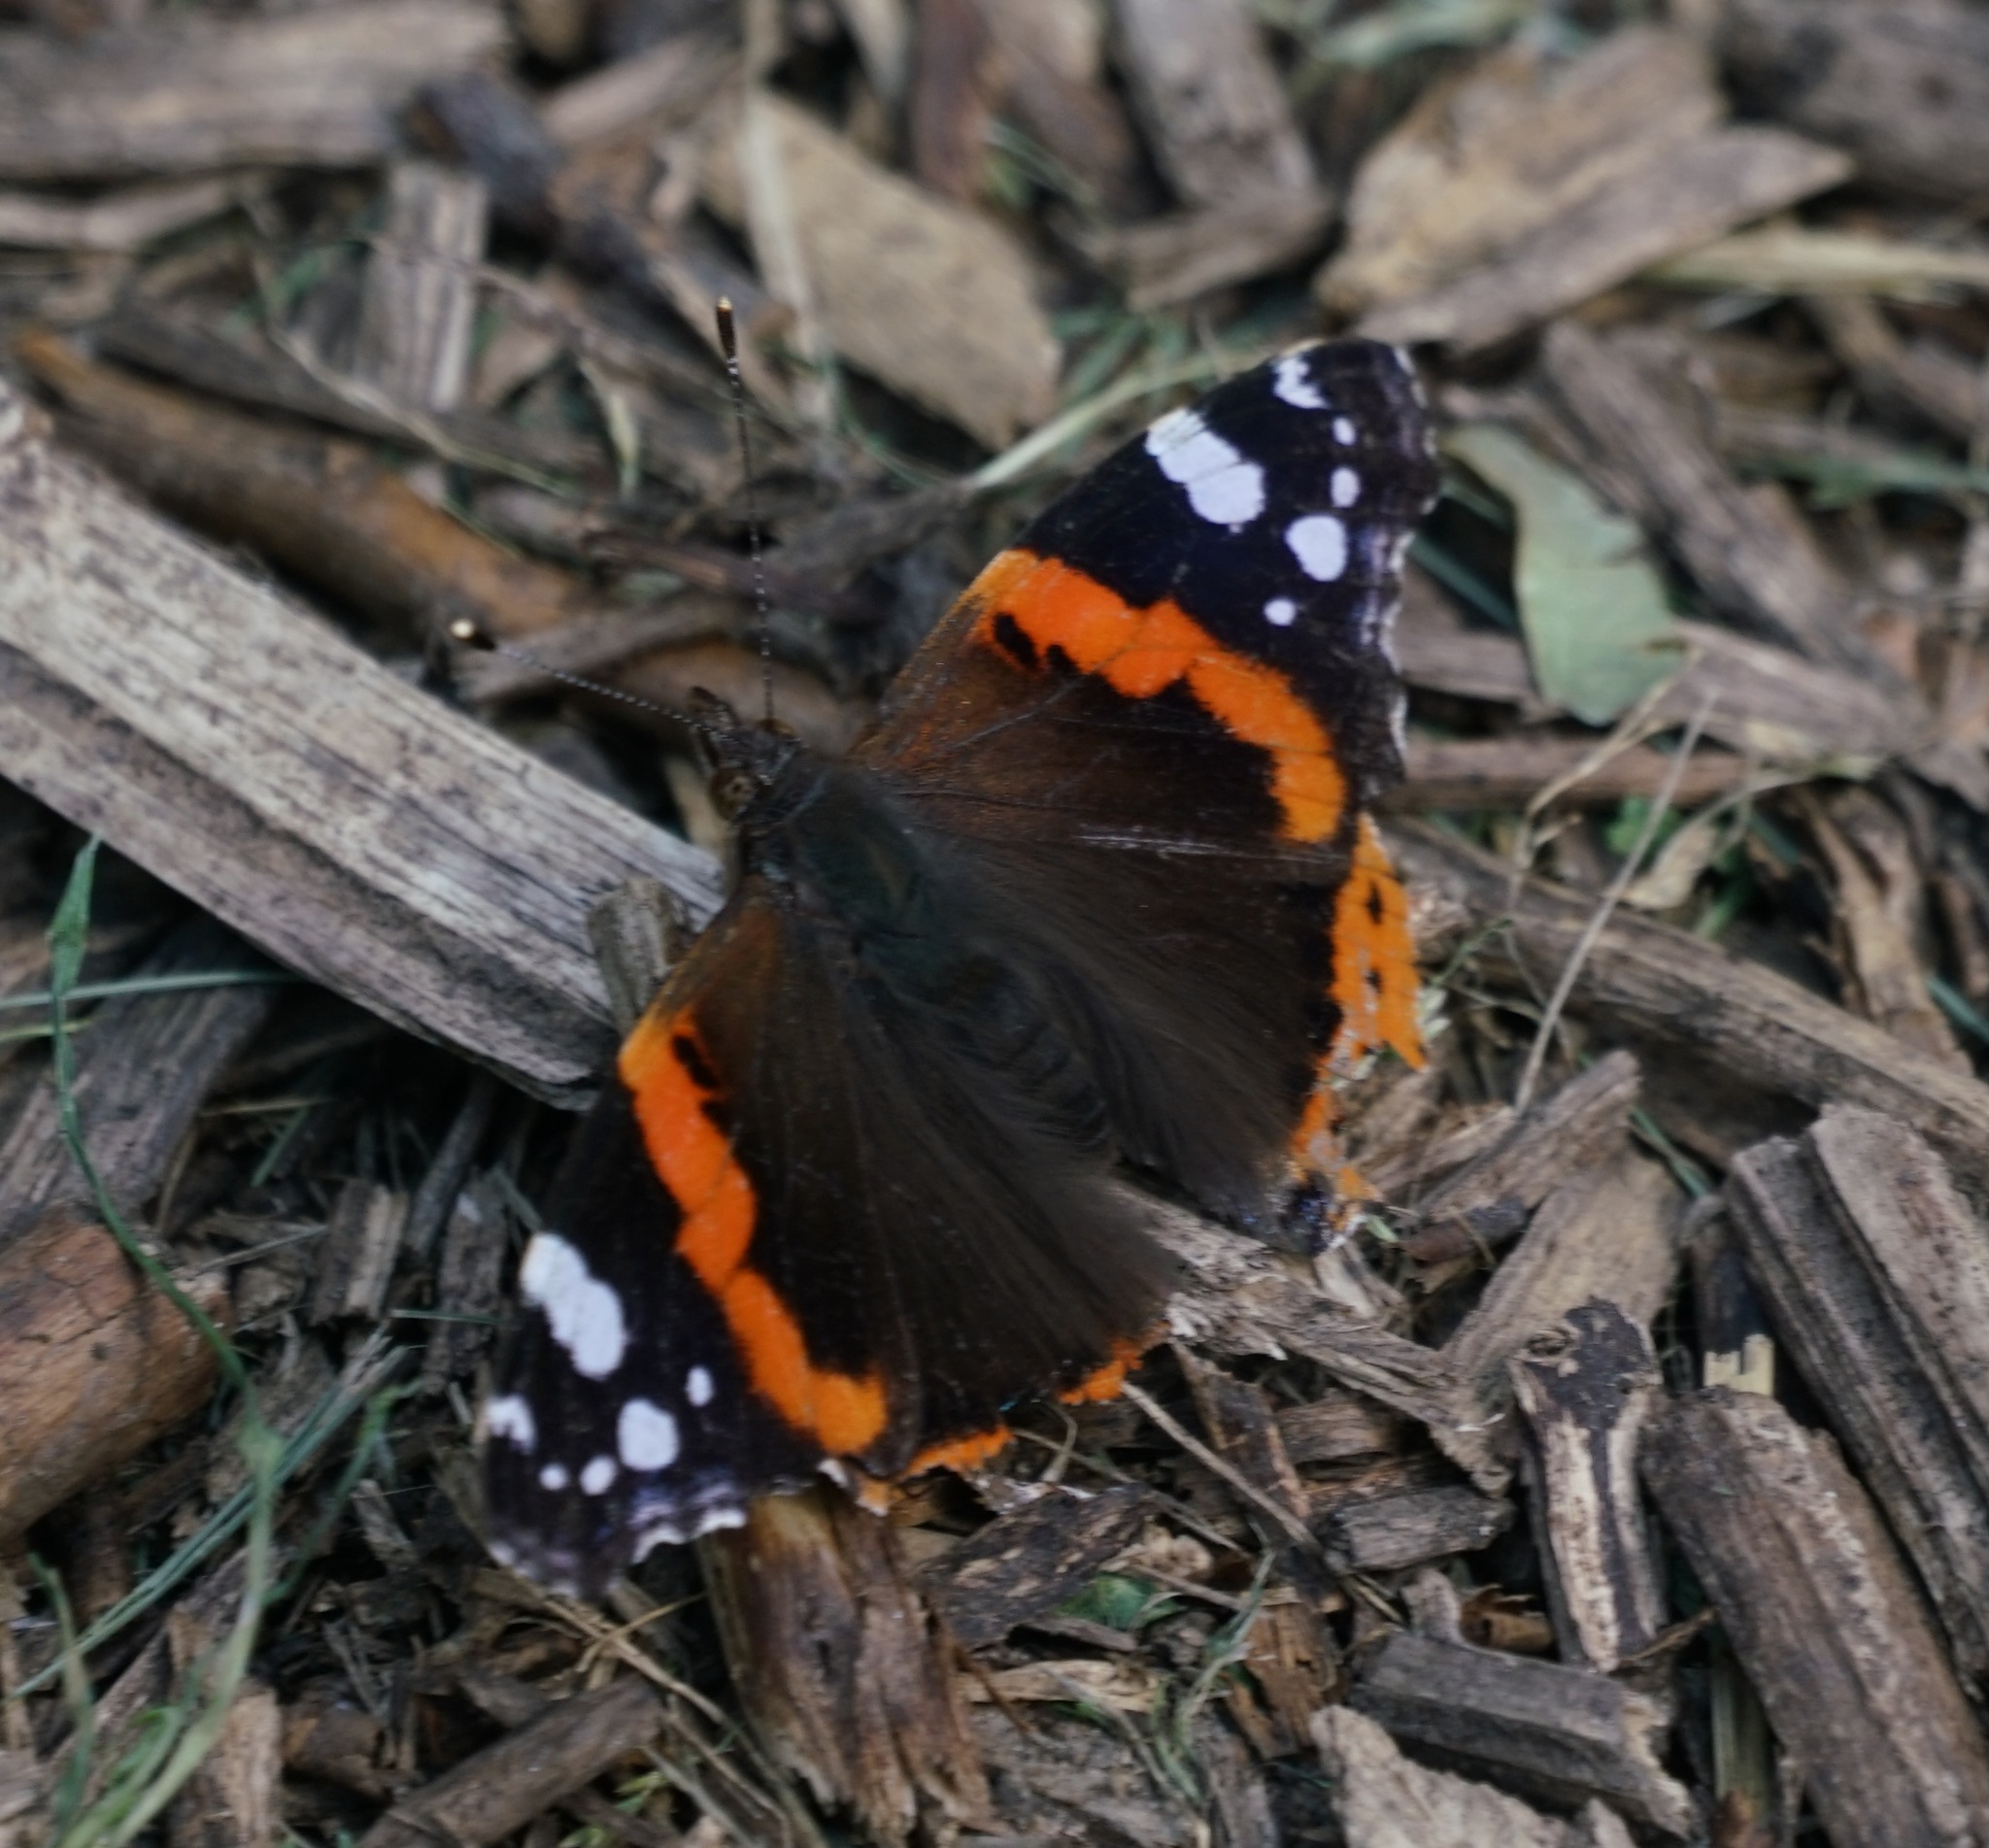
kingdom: Animalia
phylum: Arthropoda
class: Insecta
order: Lepidoptera
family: Nymphalidae
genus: Vanessa
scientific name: Vanessa atalanta
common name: Red admiral
